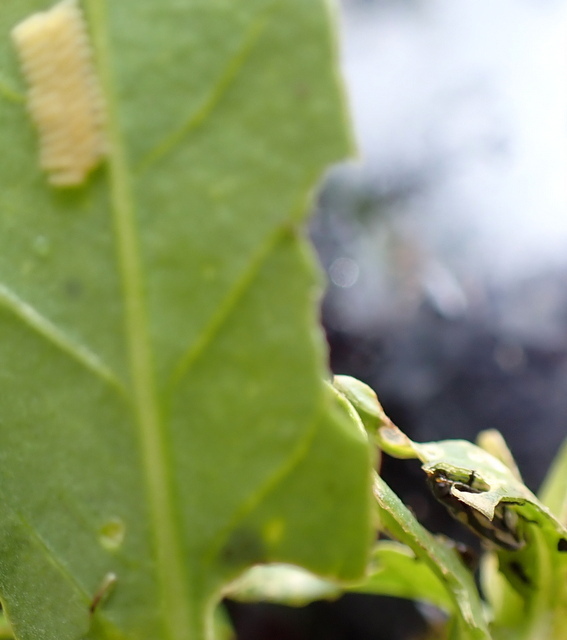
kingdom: Animalia
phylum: Arthropoda
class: Insecta
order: Coleoptera
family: Chrysomelidae
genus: Agasicles
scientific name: Agasicles hygrophila
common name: Alligatorweed flea beetle
